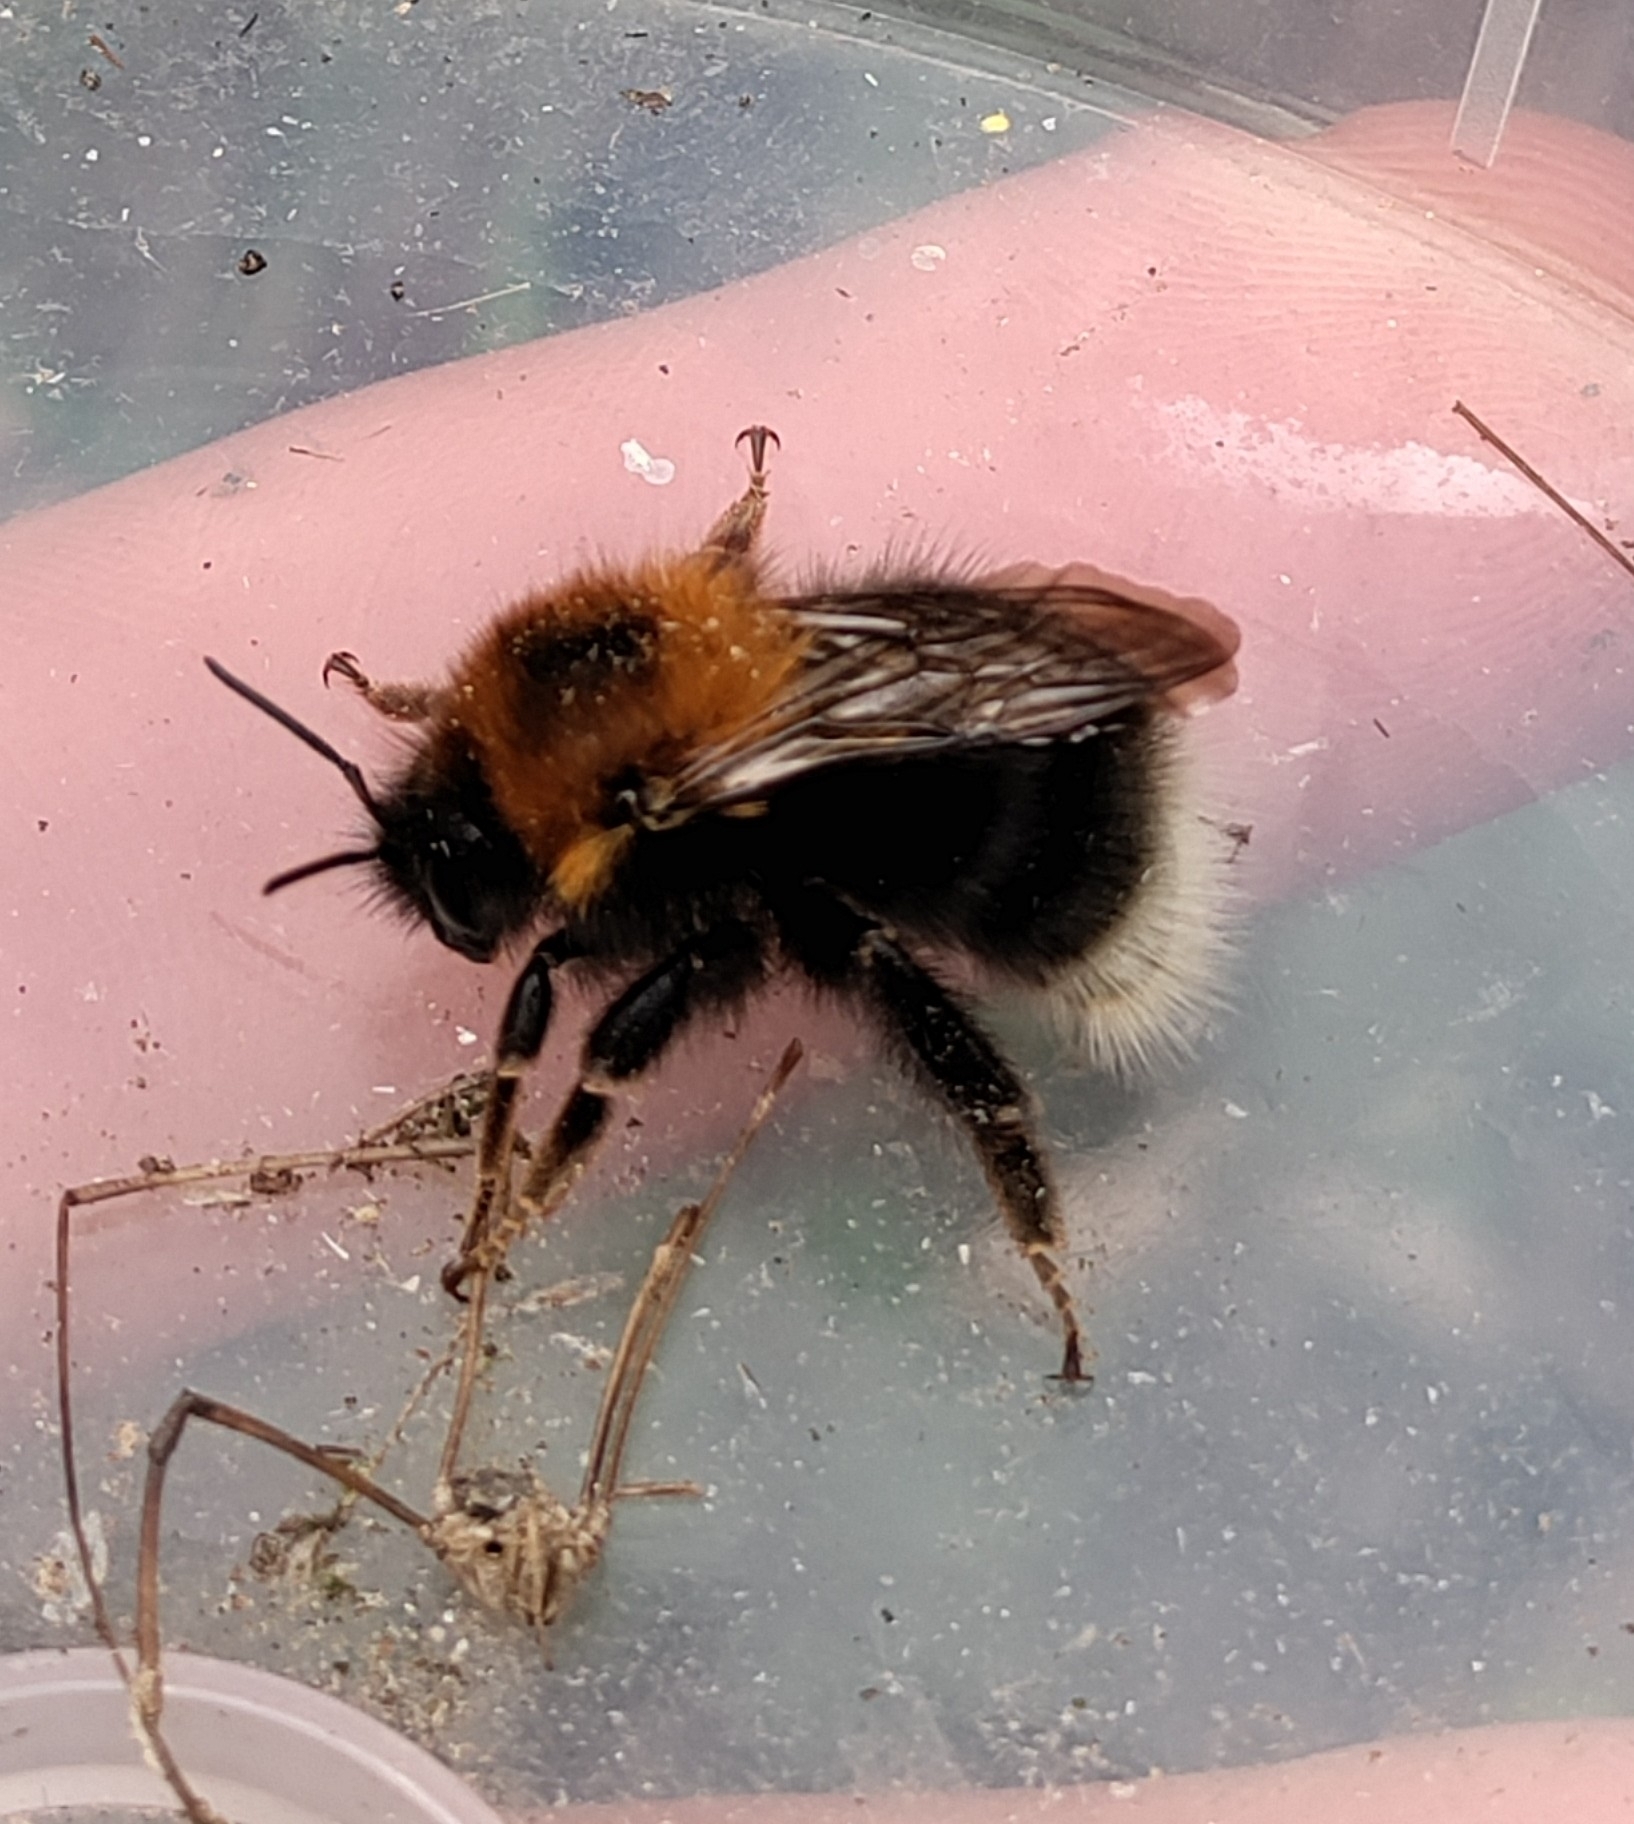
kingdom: Animalia
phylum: Arthropoda
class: Insecta
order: Hymenoptera
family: Apidae
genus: Bombus
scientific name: Bombus hypnorum
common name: New garden bumblebee
